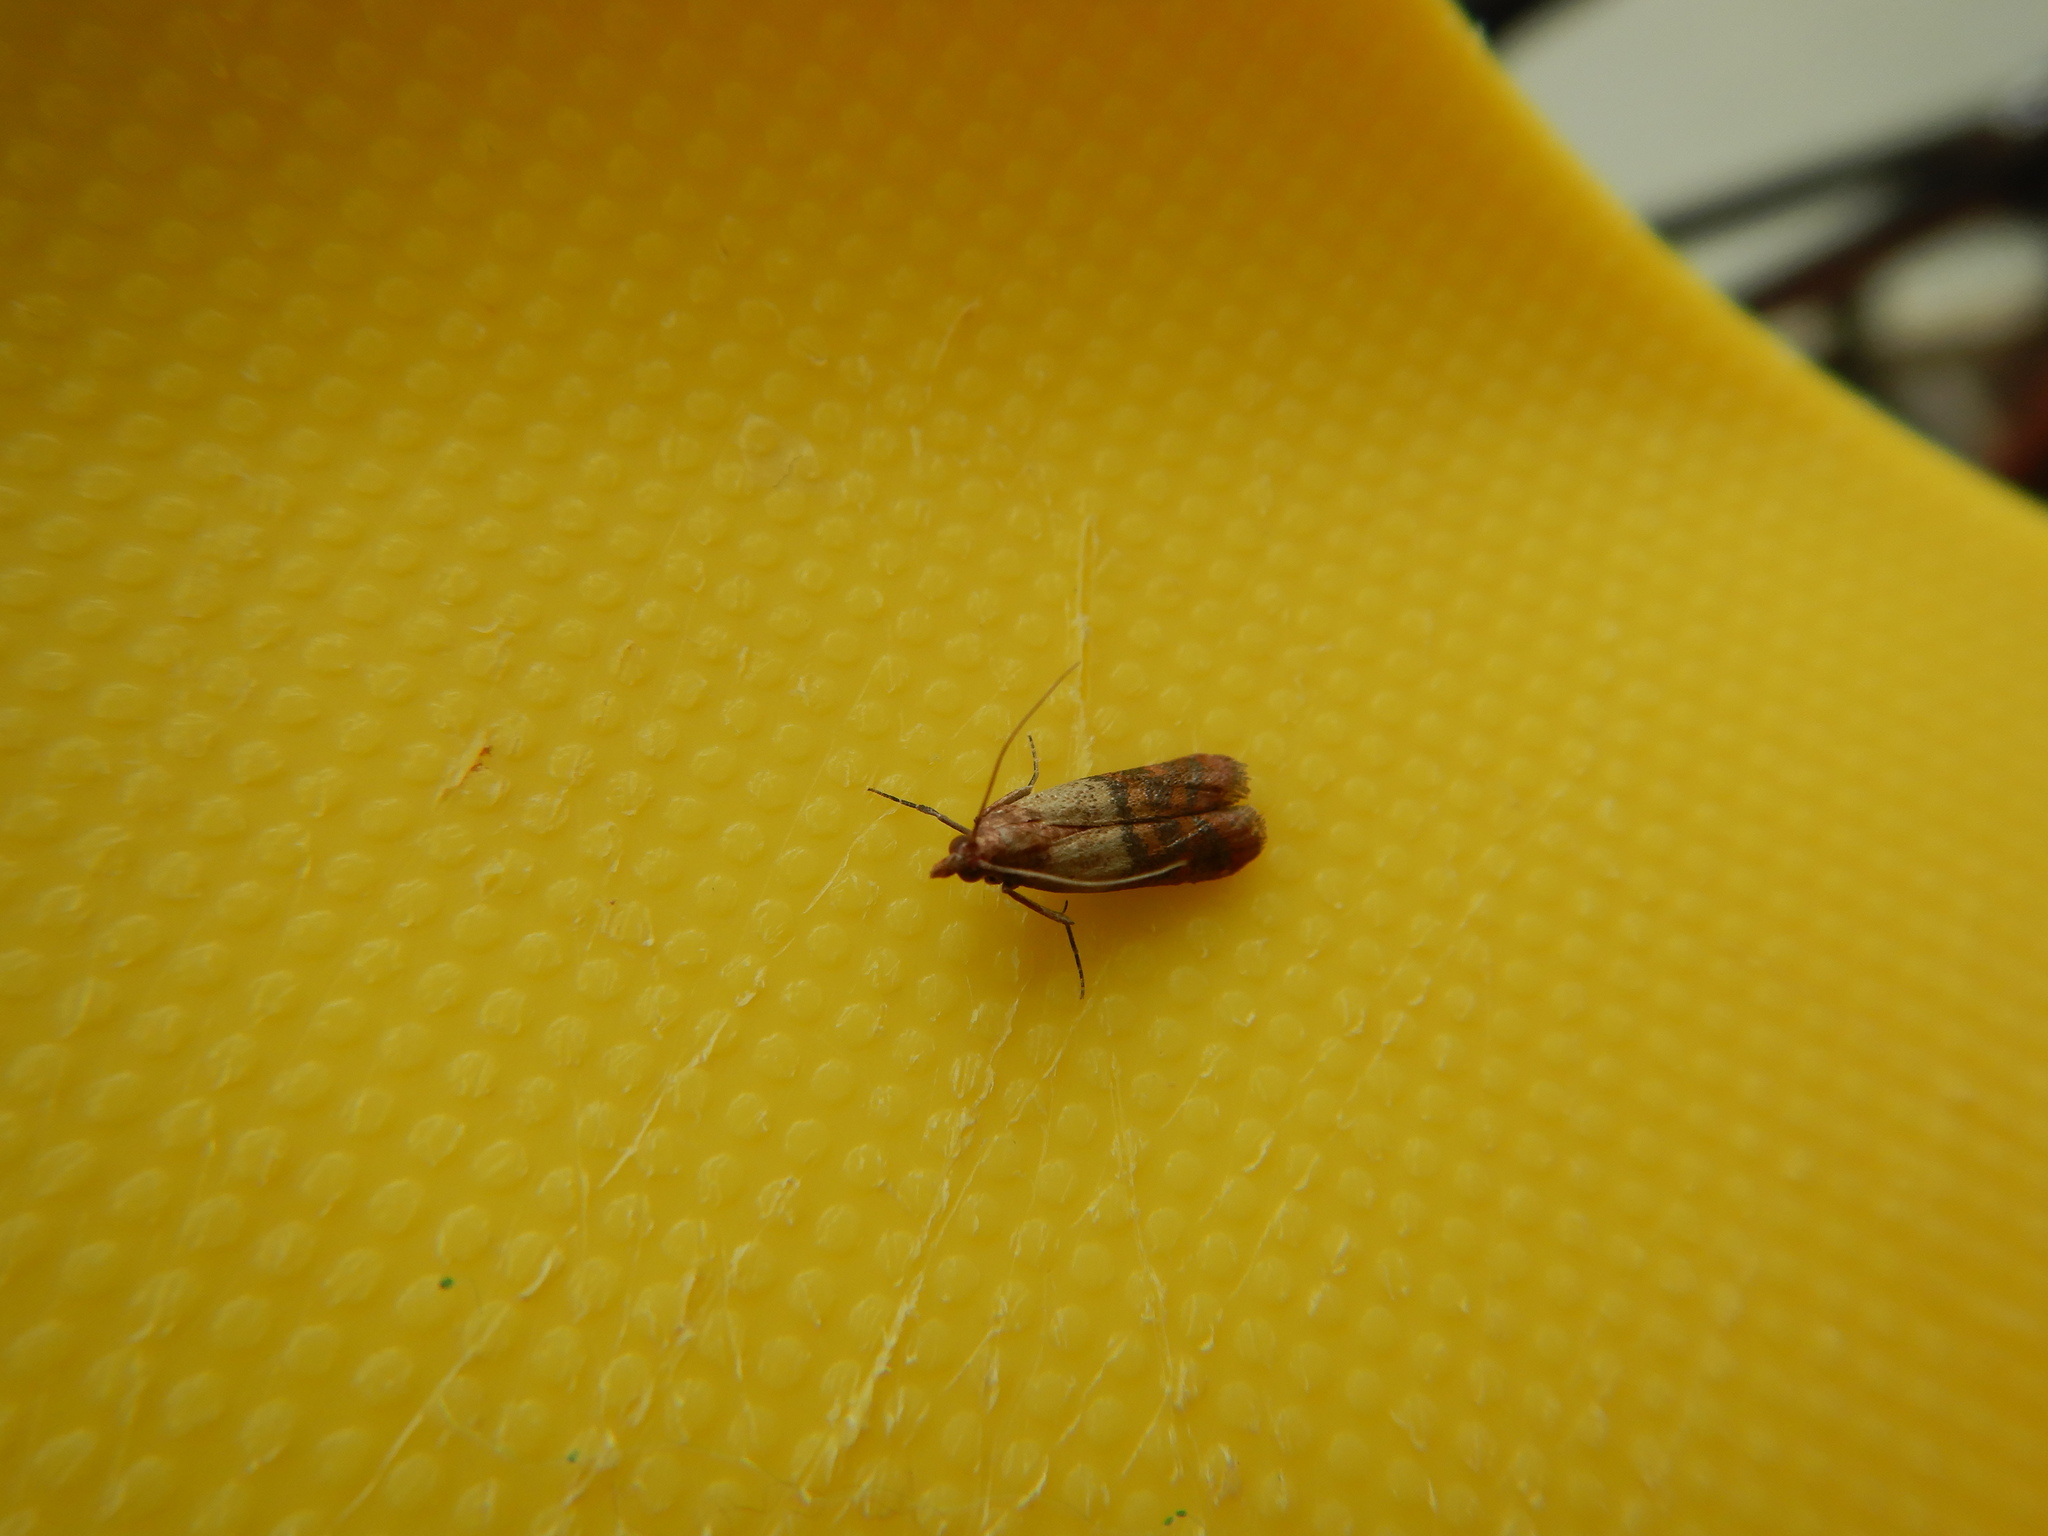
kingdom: Animalia
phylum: Arthropoda
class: Insecta
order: Lepidoptera
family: Pyralidae
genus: Plodia
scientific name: Plodia interpunctella
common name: Indian meal moth
